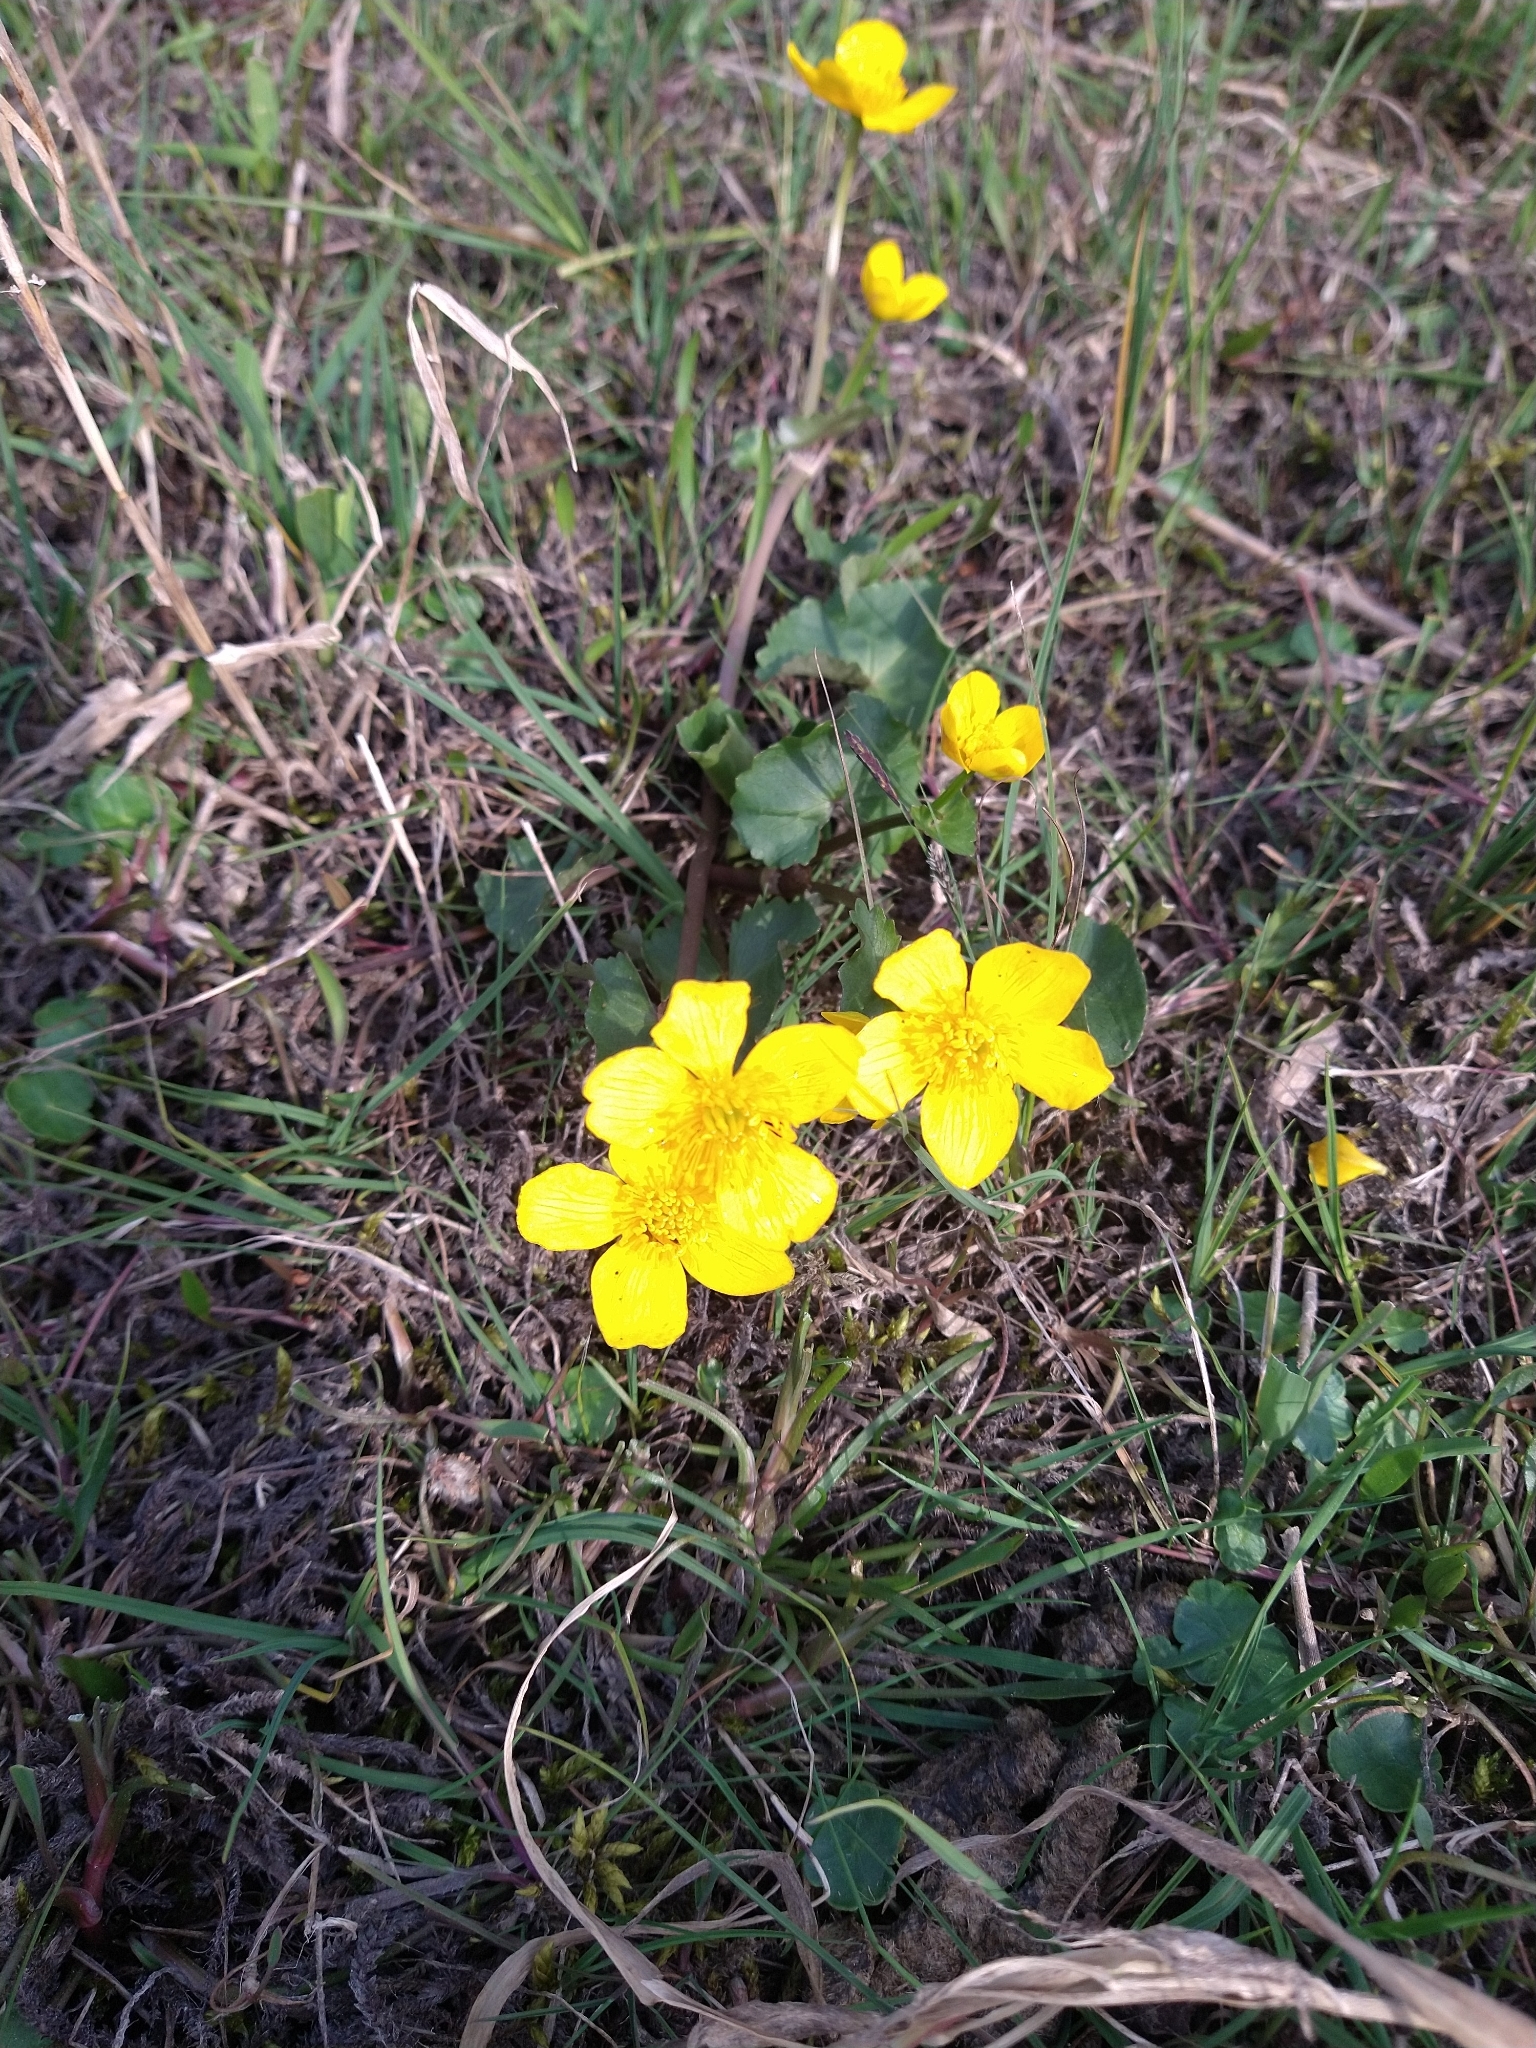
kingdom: Plantae
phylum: Tracheophyta
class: Magnoliopsida
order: Ranunculales
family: Ranunculaceae
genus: Caltha
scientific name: Caltha palustris
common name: Marsh marigold
